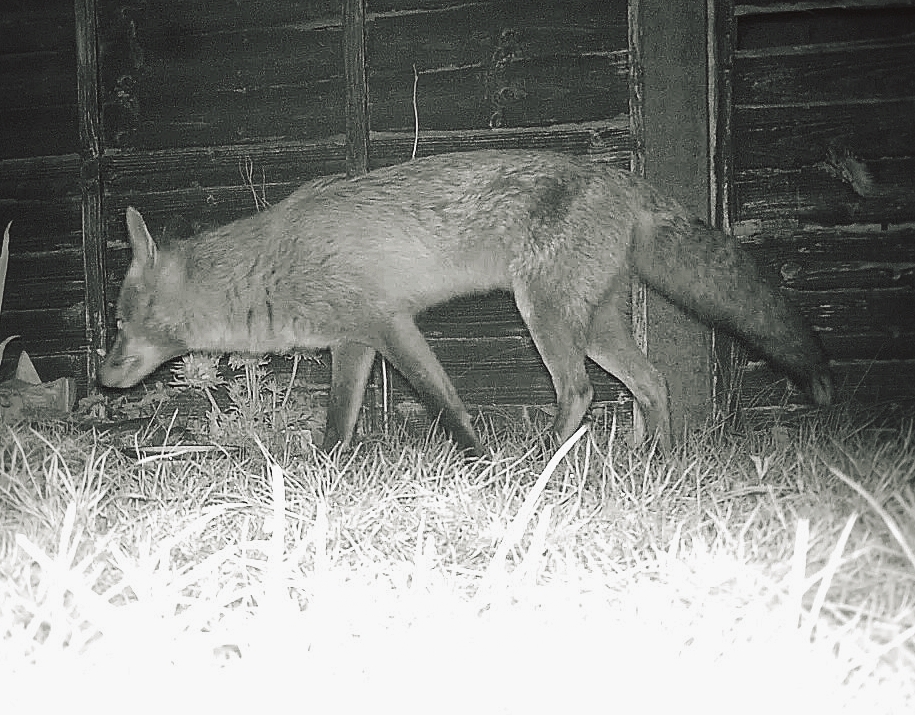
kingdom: Animalia
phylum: Chordata
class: Mammalia
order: Carnivora
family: Canidae
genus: Vulpes
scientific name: Vulpes vulpes
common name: Red fox
